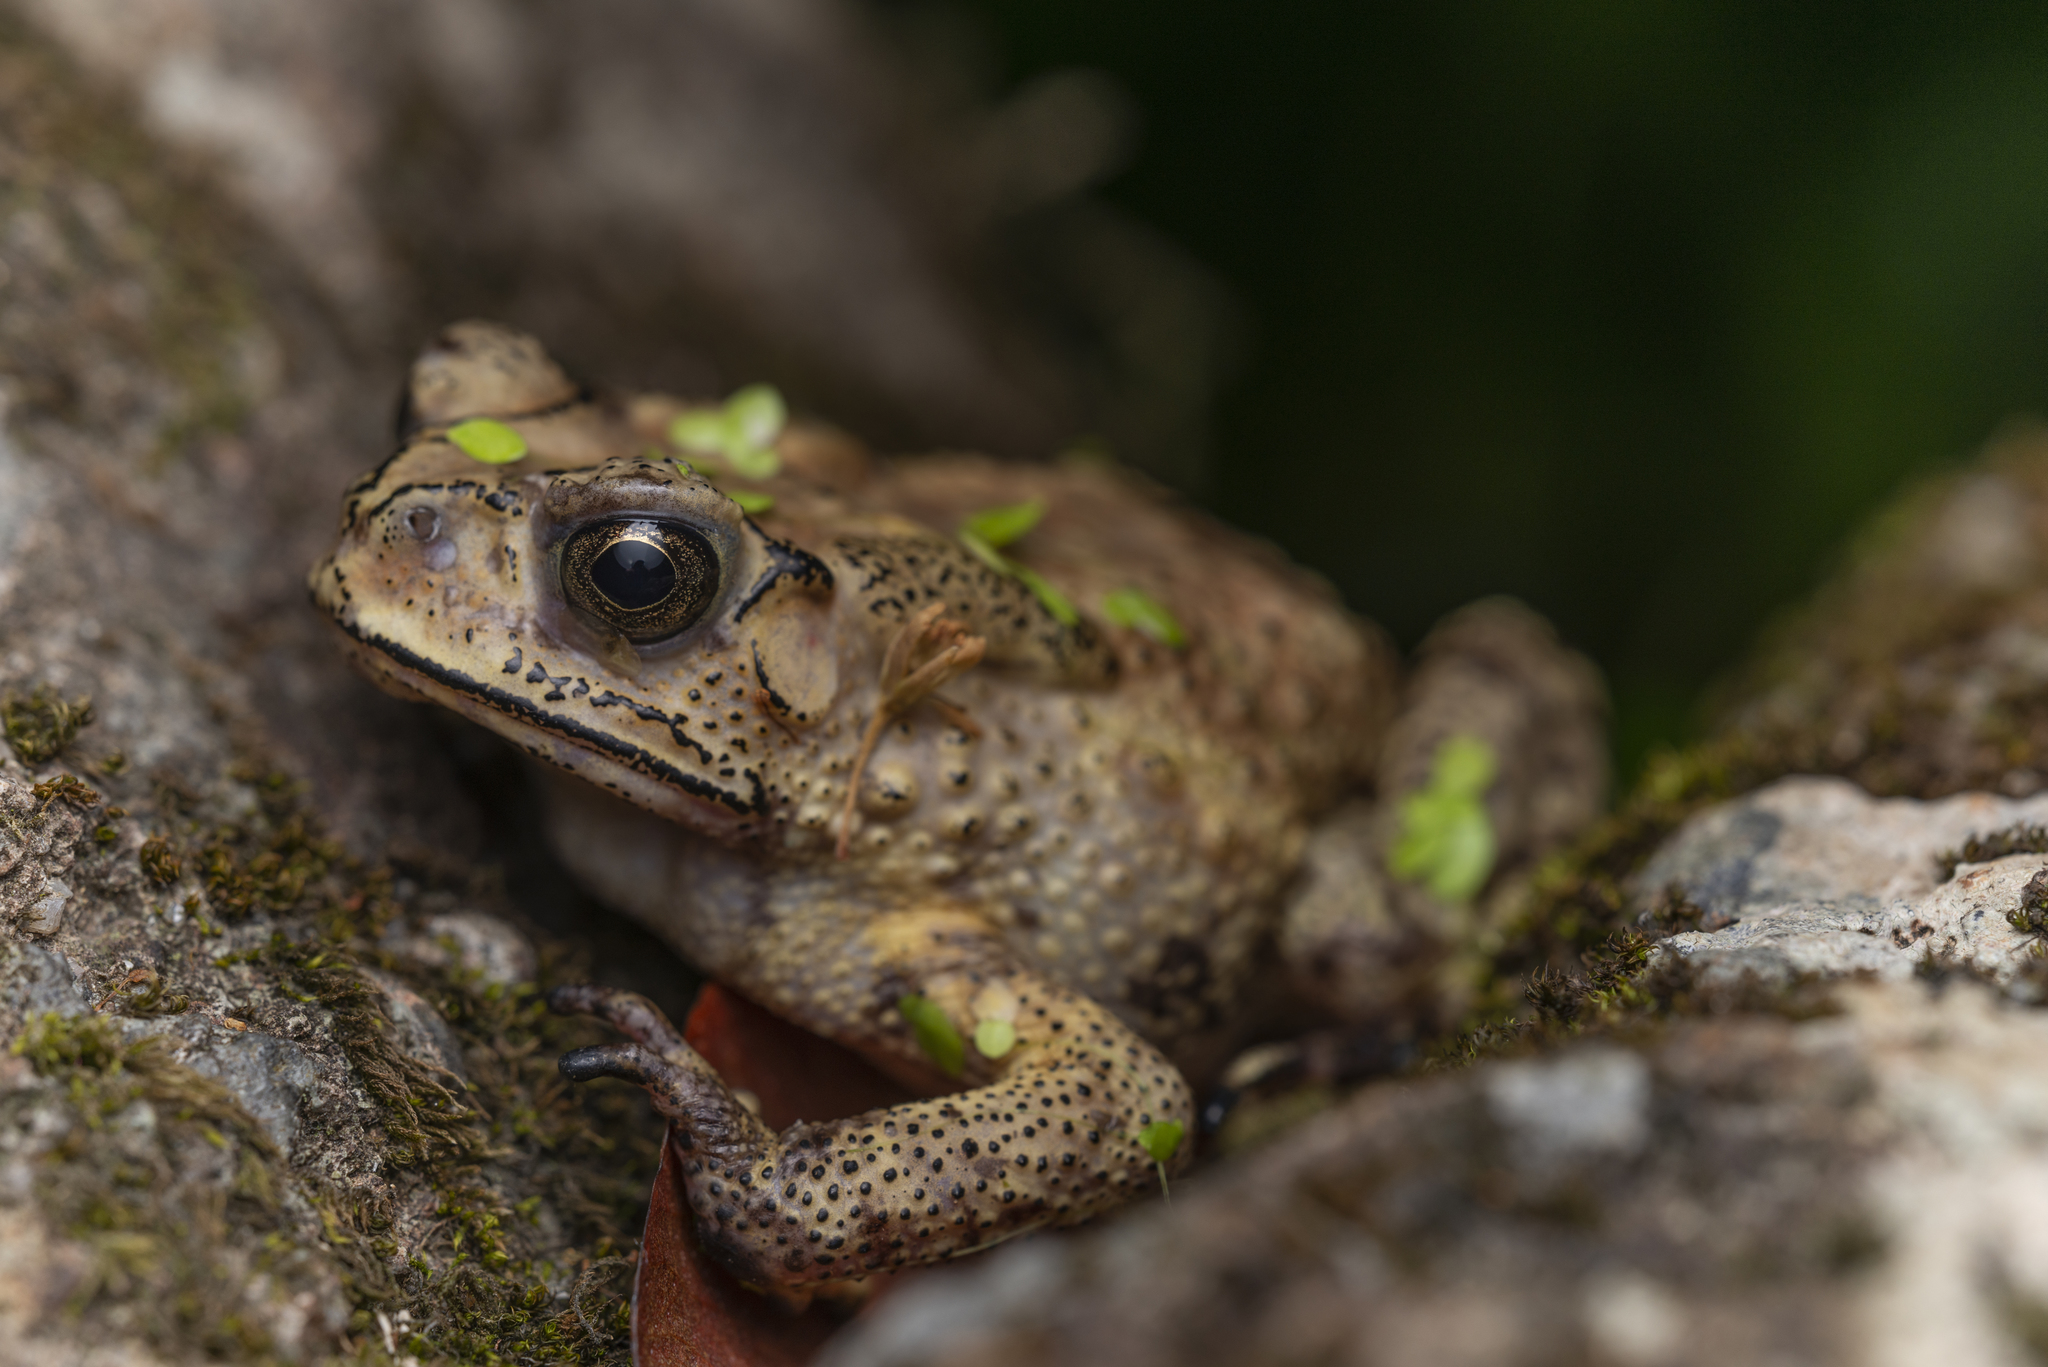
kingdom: Animalia
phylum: Chordata
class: Amphibia
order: Anura
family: Bufonidae
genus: Duttaphrynus
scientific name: Duttaphrynus melanostictus
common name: Common sunda toad
